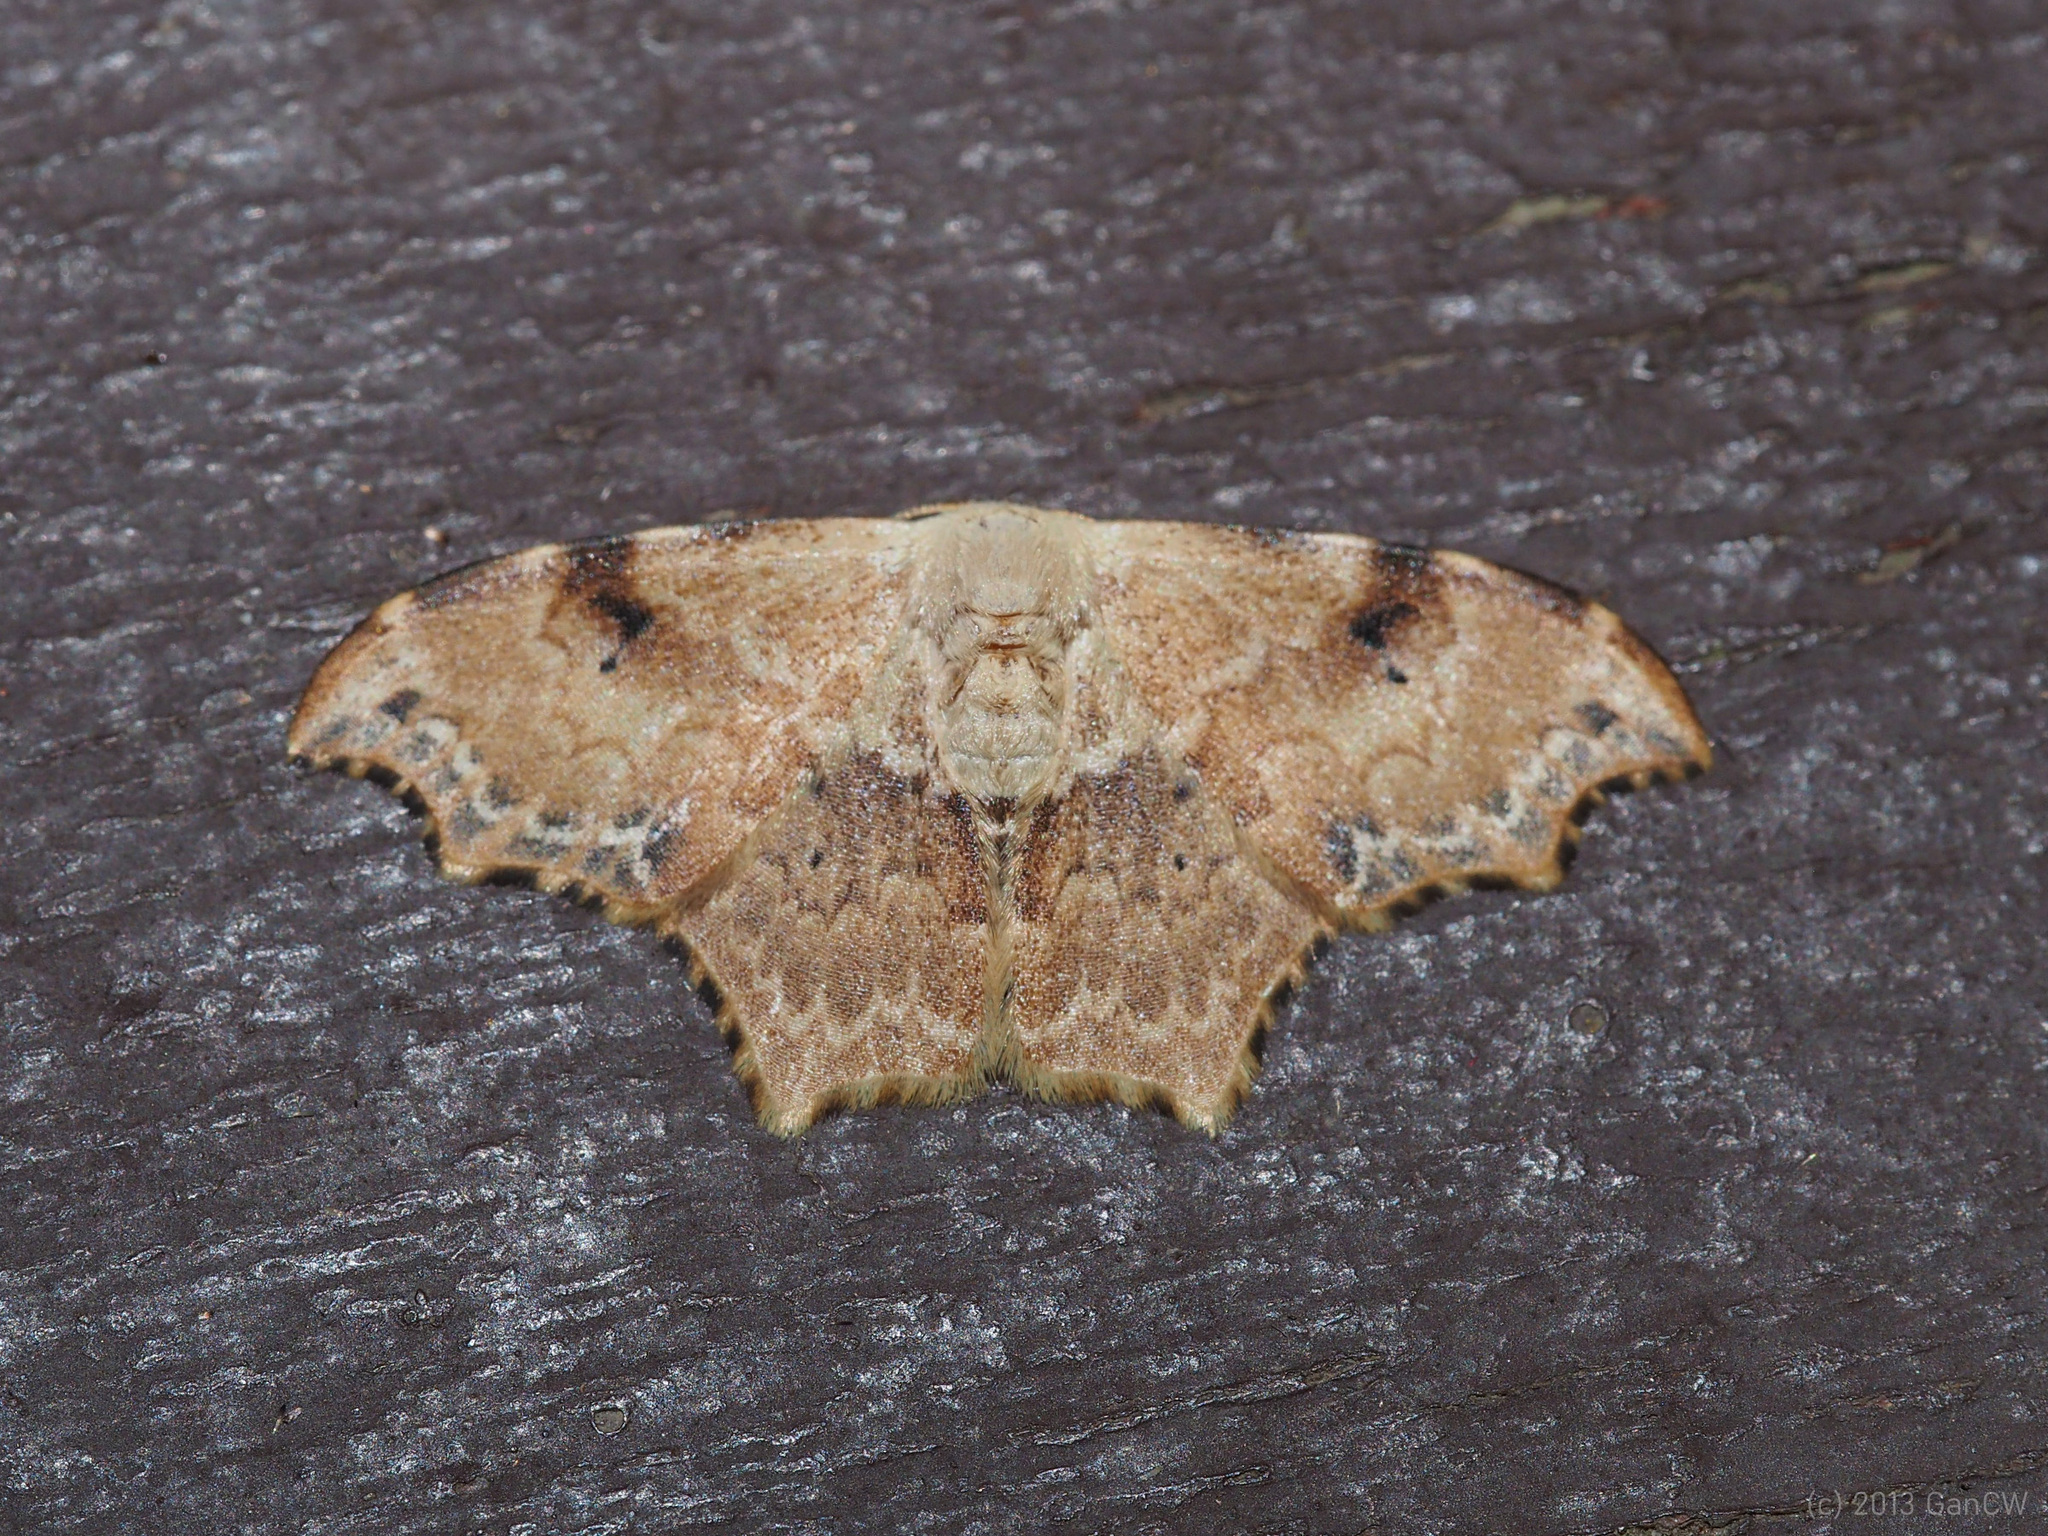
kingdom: Animalia
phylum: Arthropoda
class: Insecta
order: Lepidoptera
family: Drepanidae
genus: Strepsigonia
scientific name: Strepsigonia affinis
